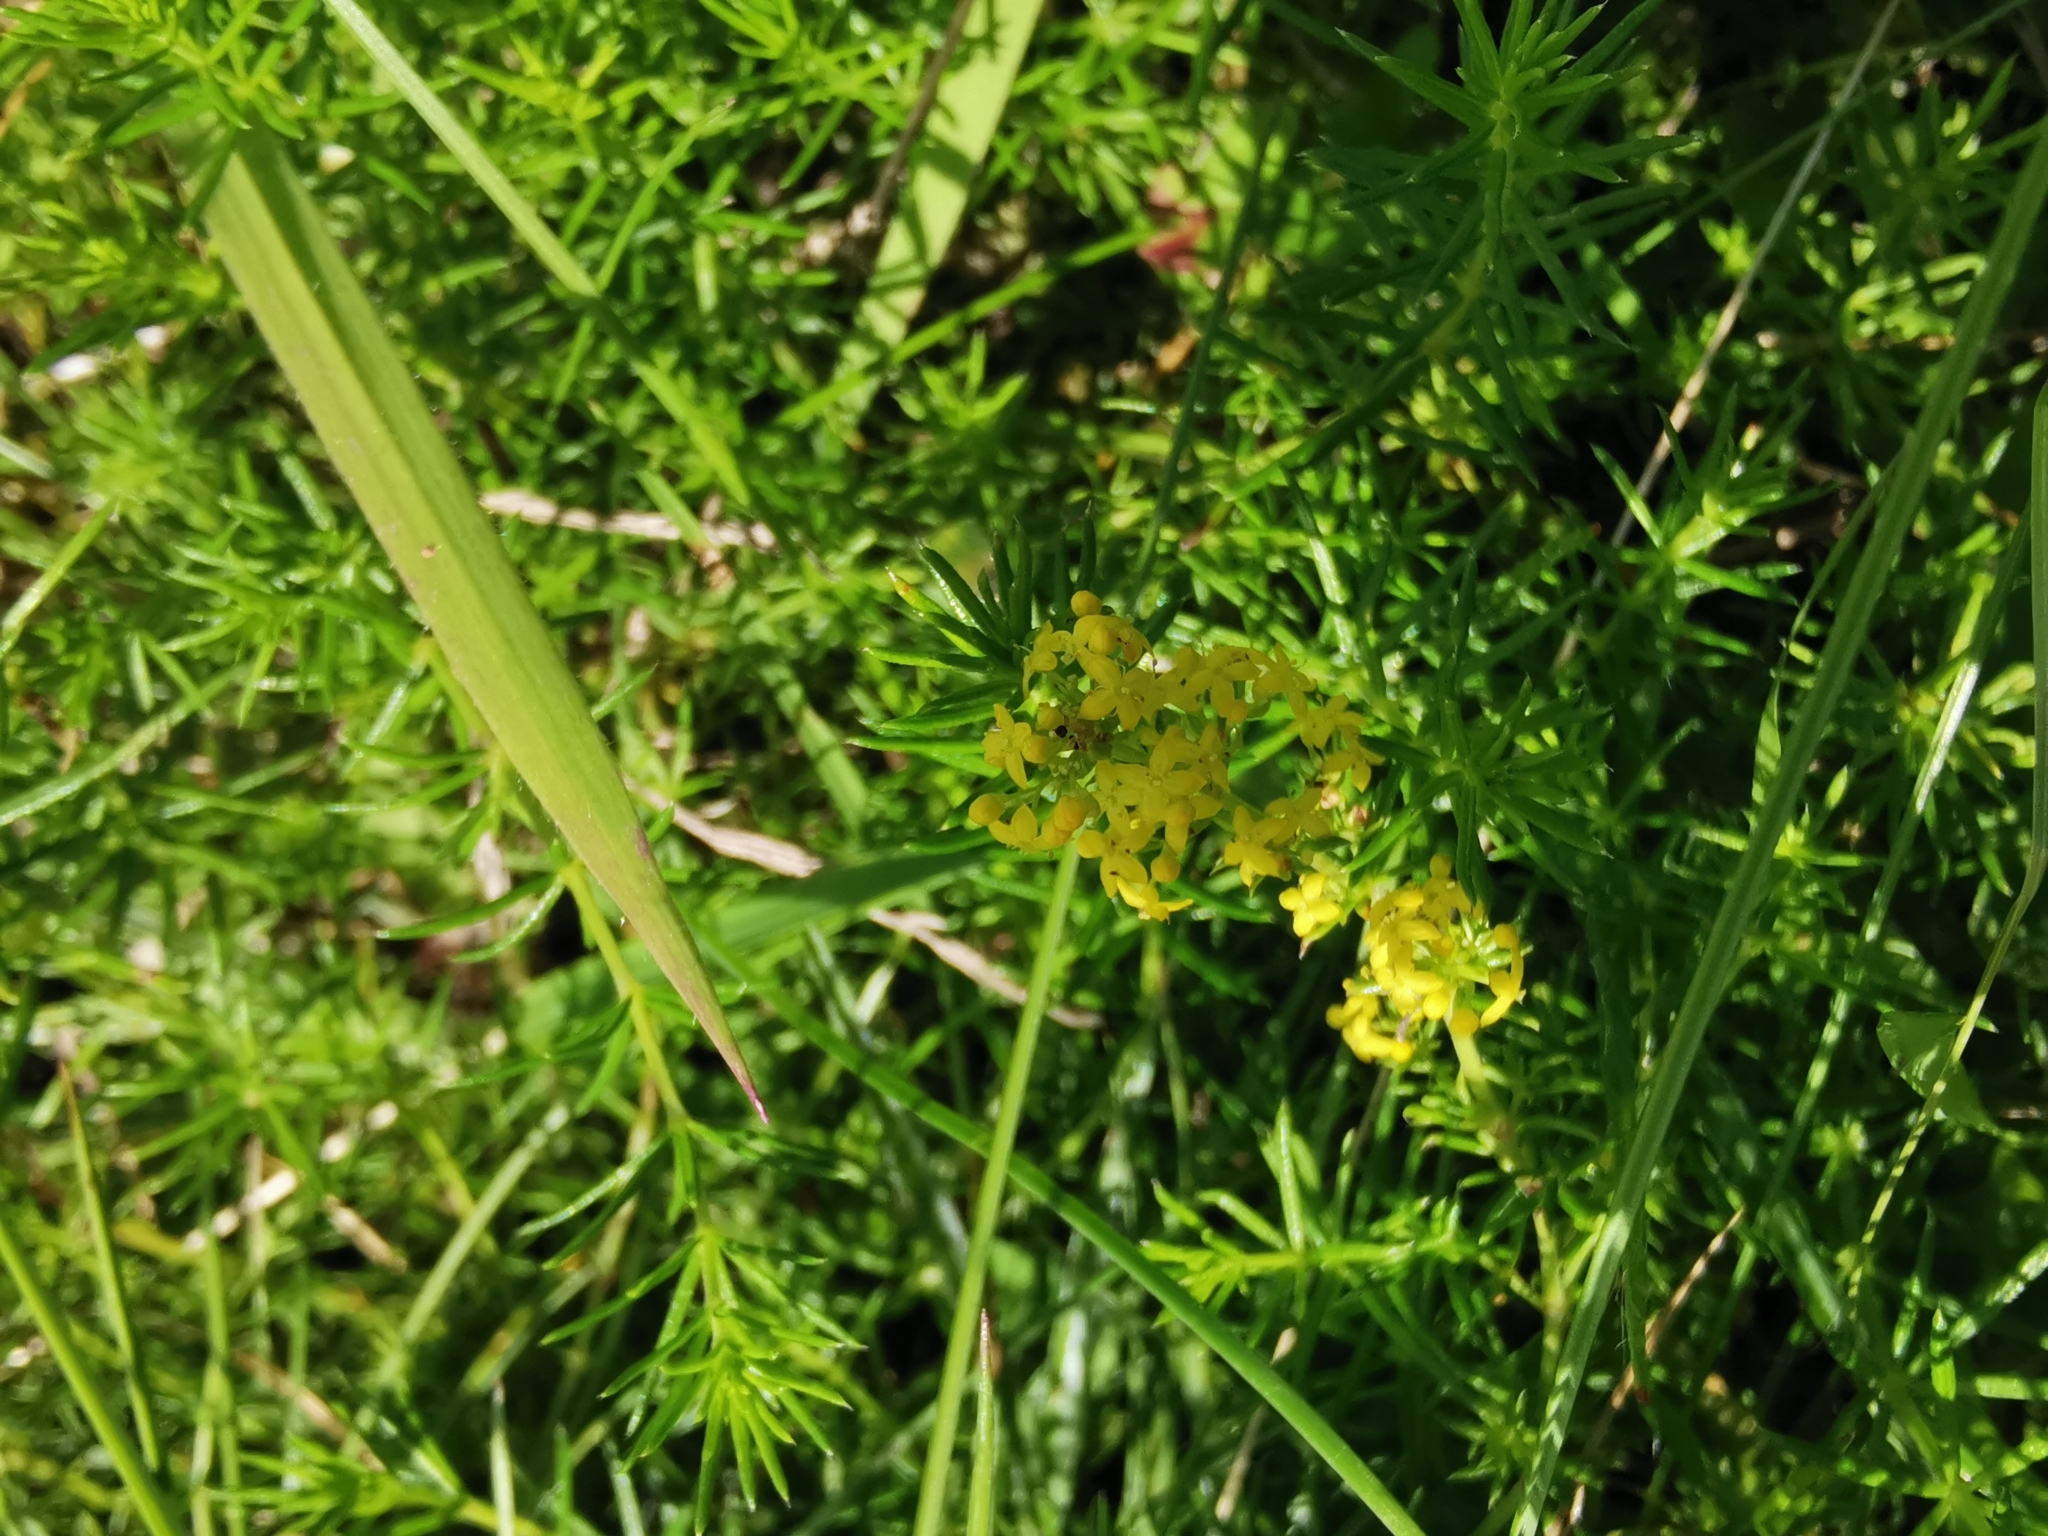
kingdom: Plantae
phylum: Tracheophyta
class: Magnoliopsida
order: Gentianales
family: Rubiaceae
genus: Galium
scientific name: Galium verum
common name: Lady's bedstraw
